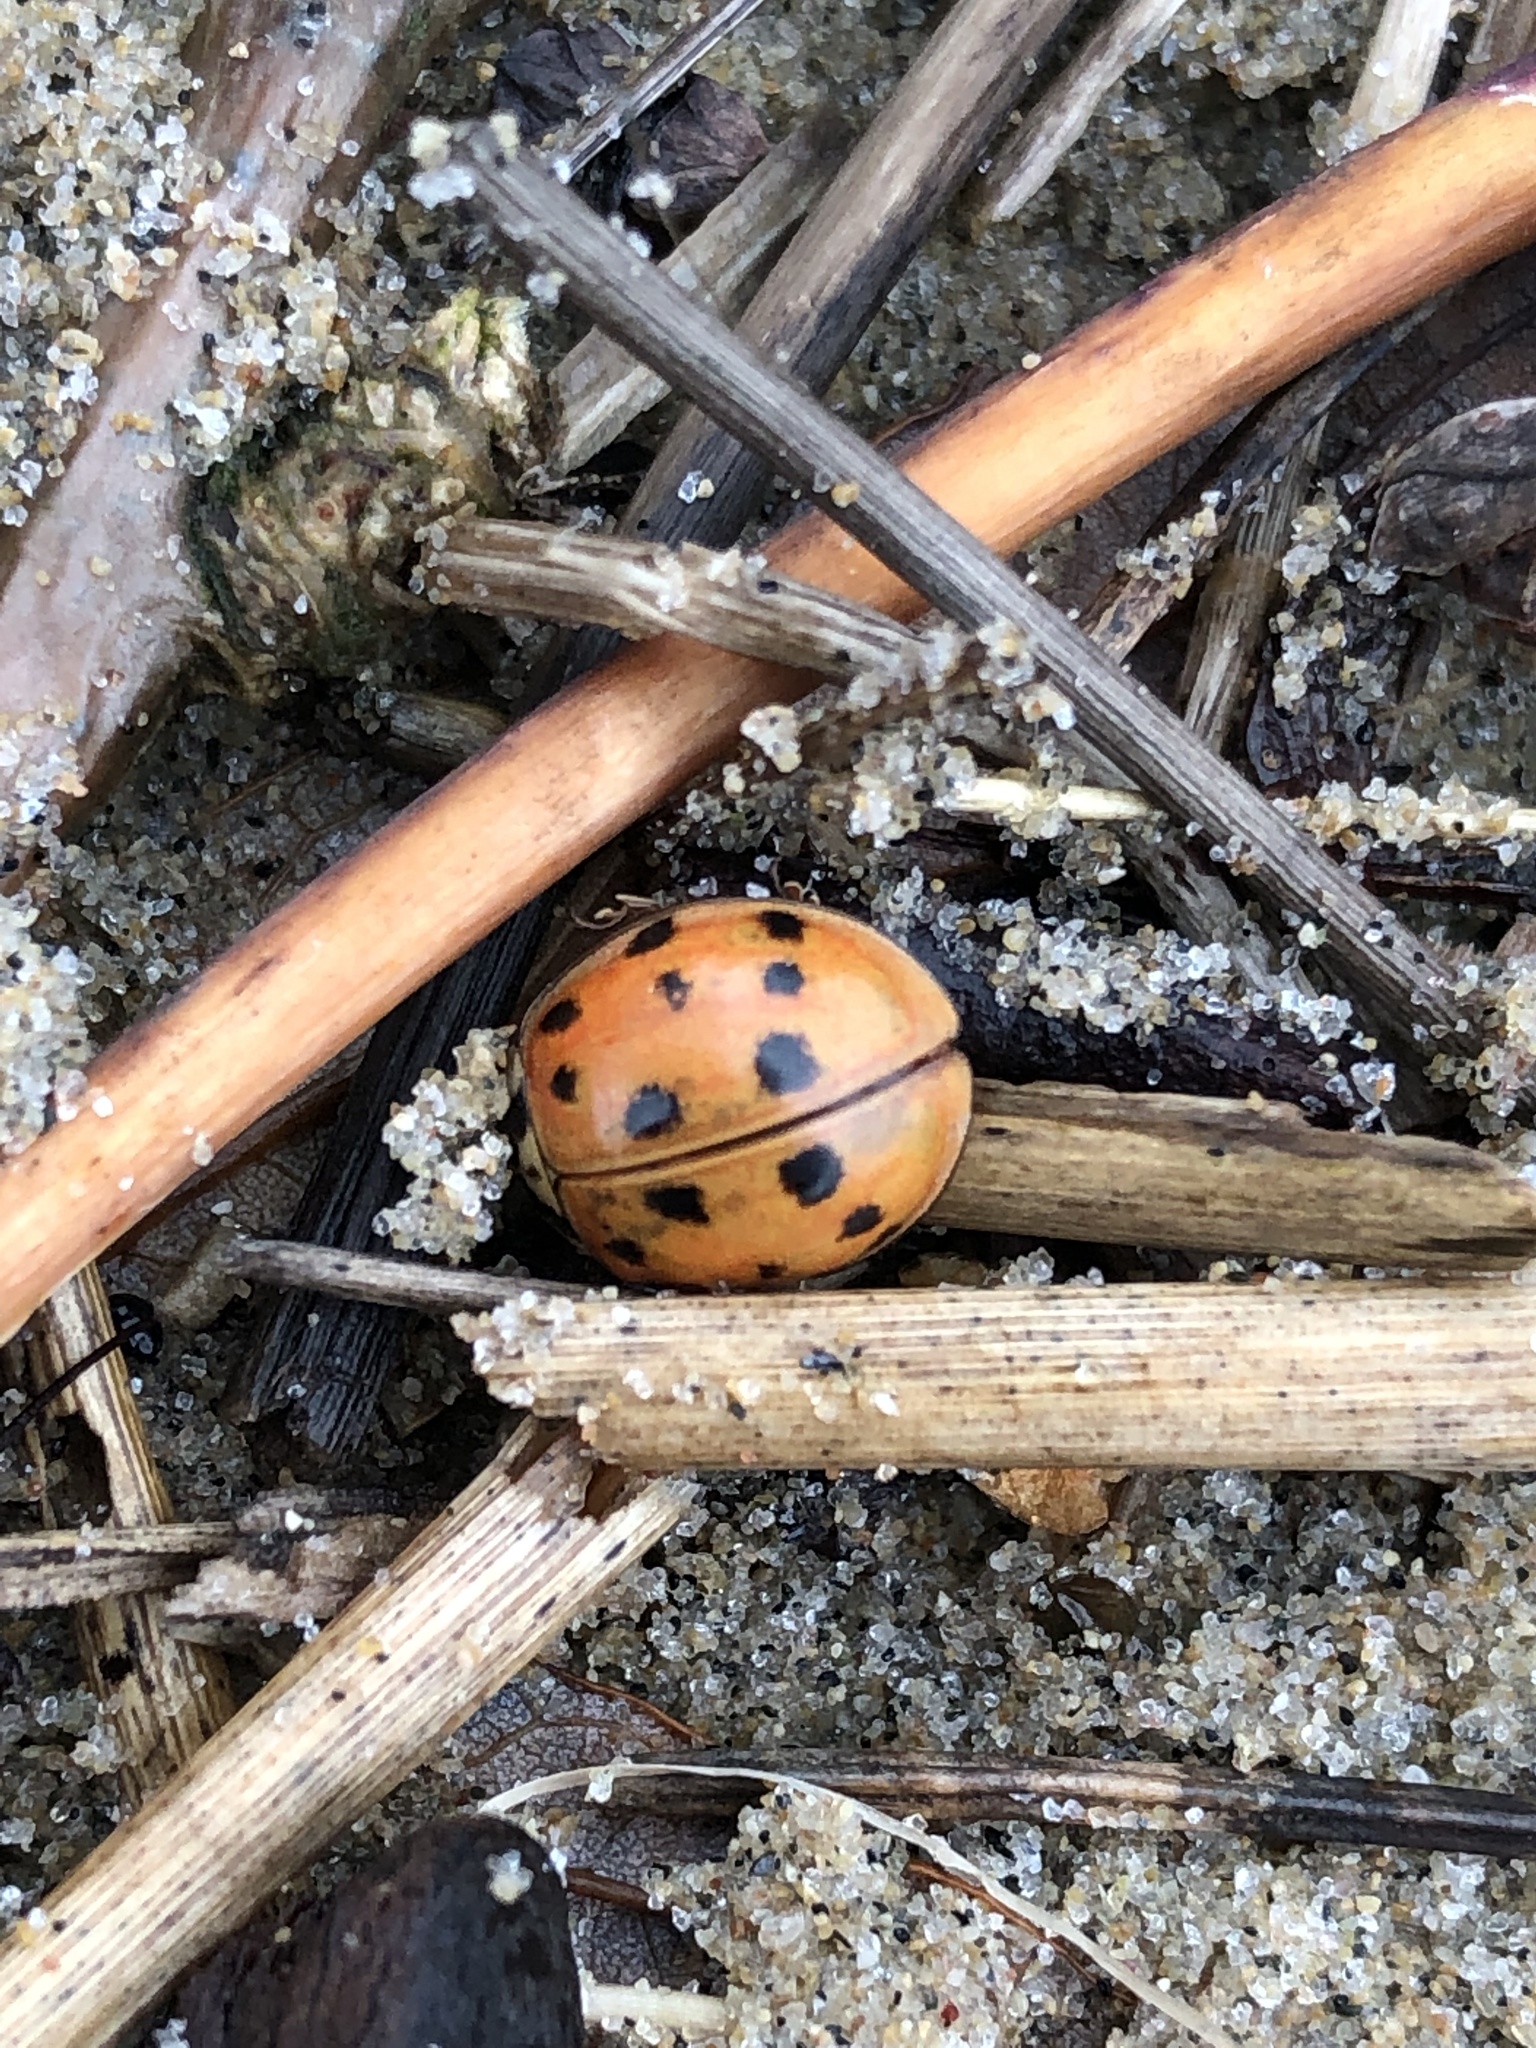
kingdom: Animalia
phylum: Arthropoda
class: Insecta
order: Coleoptera
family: Coccinellidae
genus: Harmonia
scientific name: Harmonia axyridis
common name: Harlequin ladybird
